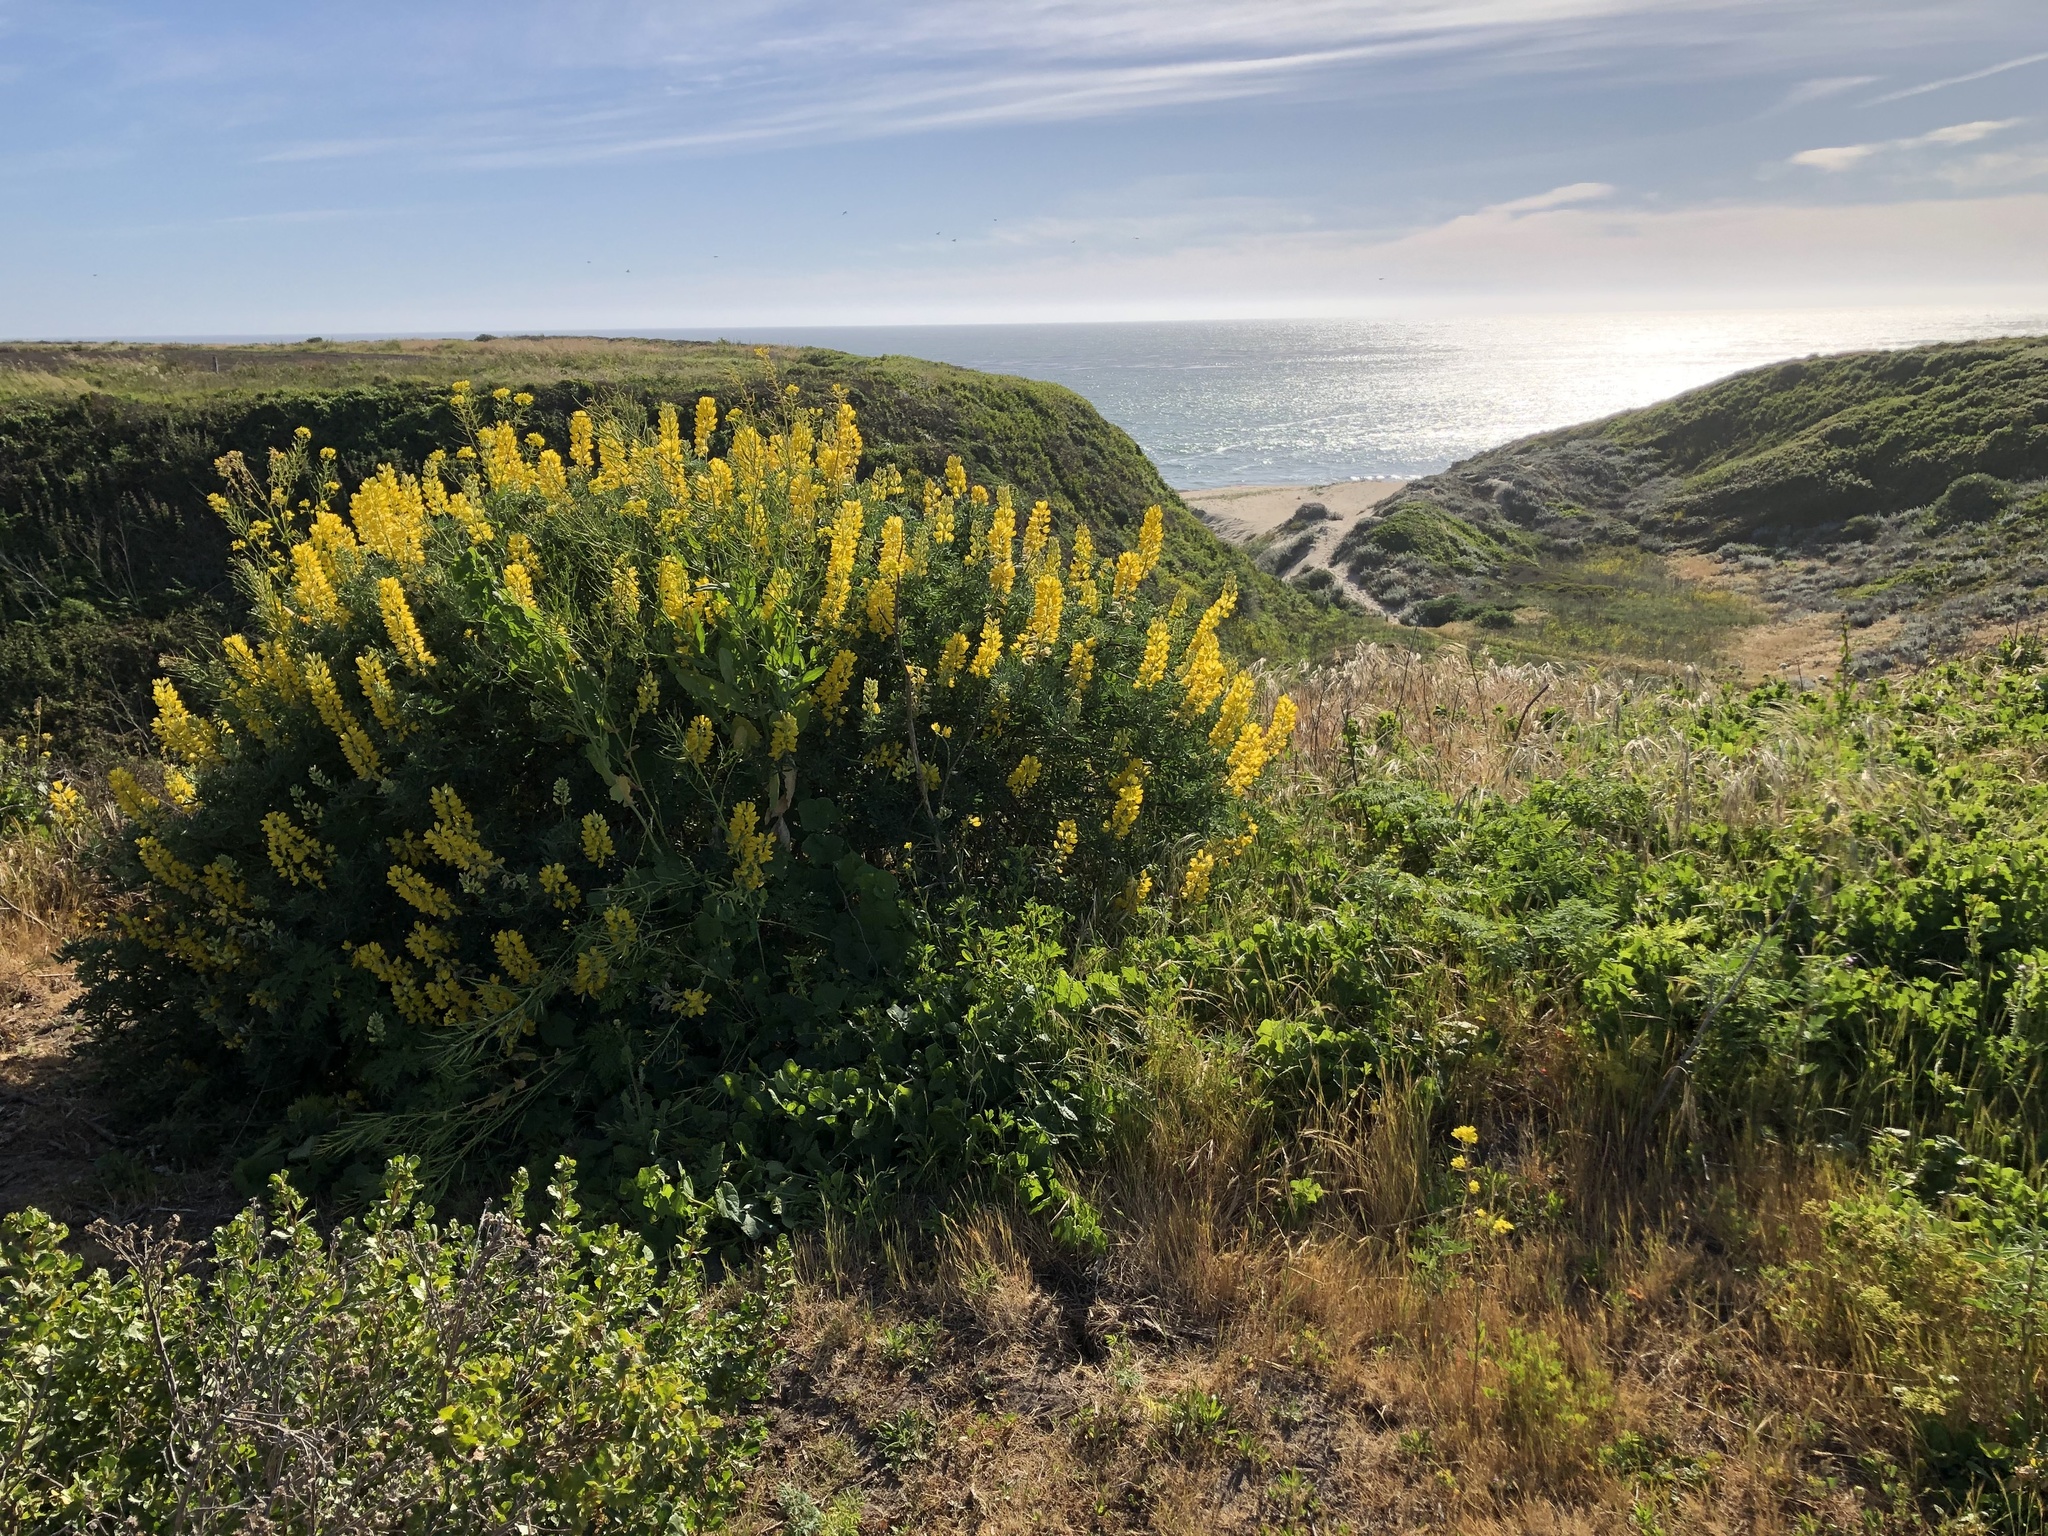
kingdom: Plantae
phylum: Tracheophyta
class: Magnoliopsida
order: Fabales
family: Fabaceae
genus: Lupinus
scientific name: Lupinus arboreus
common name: Yellow bush lupine
